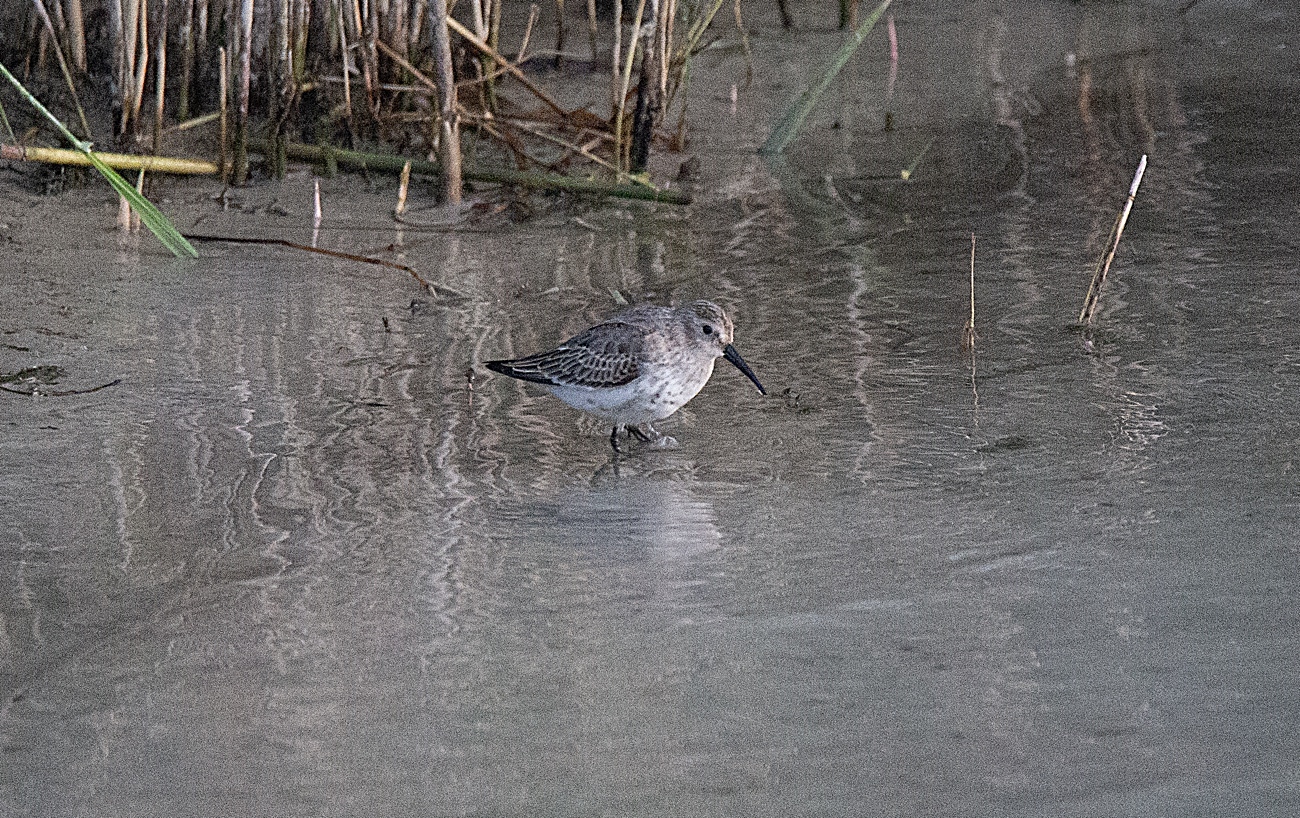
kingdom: Animalia
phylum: Chordata
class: Aves
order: Charadriiformes
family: Scolopacidae
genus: Calidris
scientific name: Calidris alpina
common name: Dunlin
